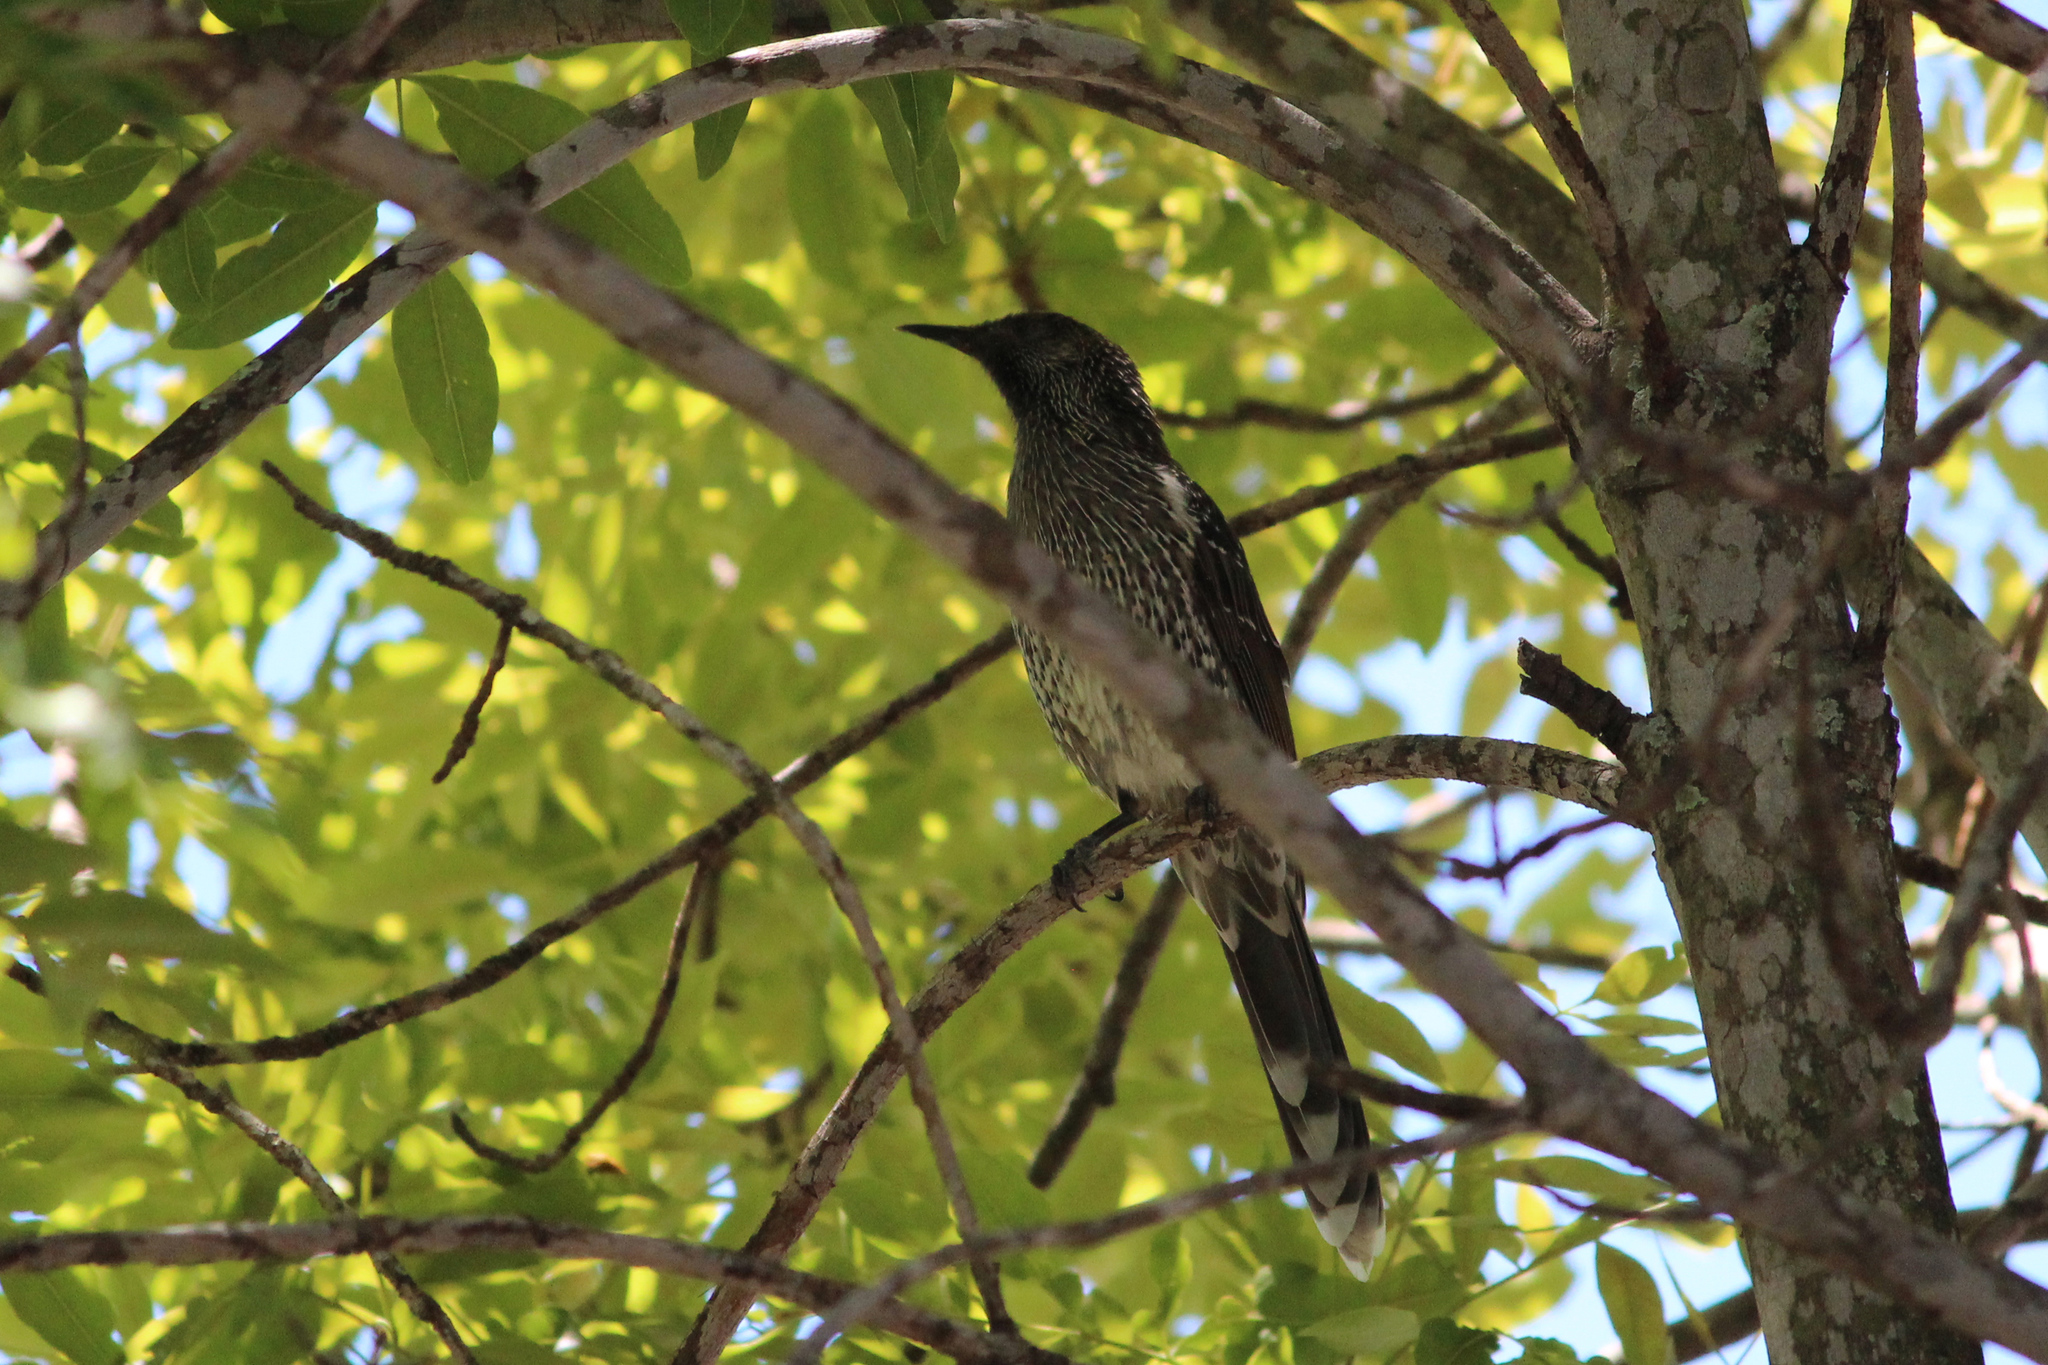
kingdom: Animalia
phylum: Chordata
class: Aves
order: Passeriformes
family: Meliphagidae
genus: Anthochaera
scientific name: Anthochaera chrysoptera
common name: Little wattlebird
